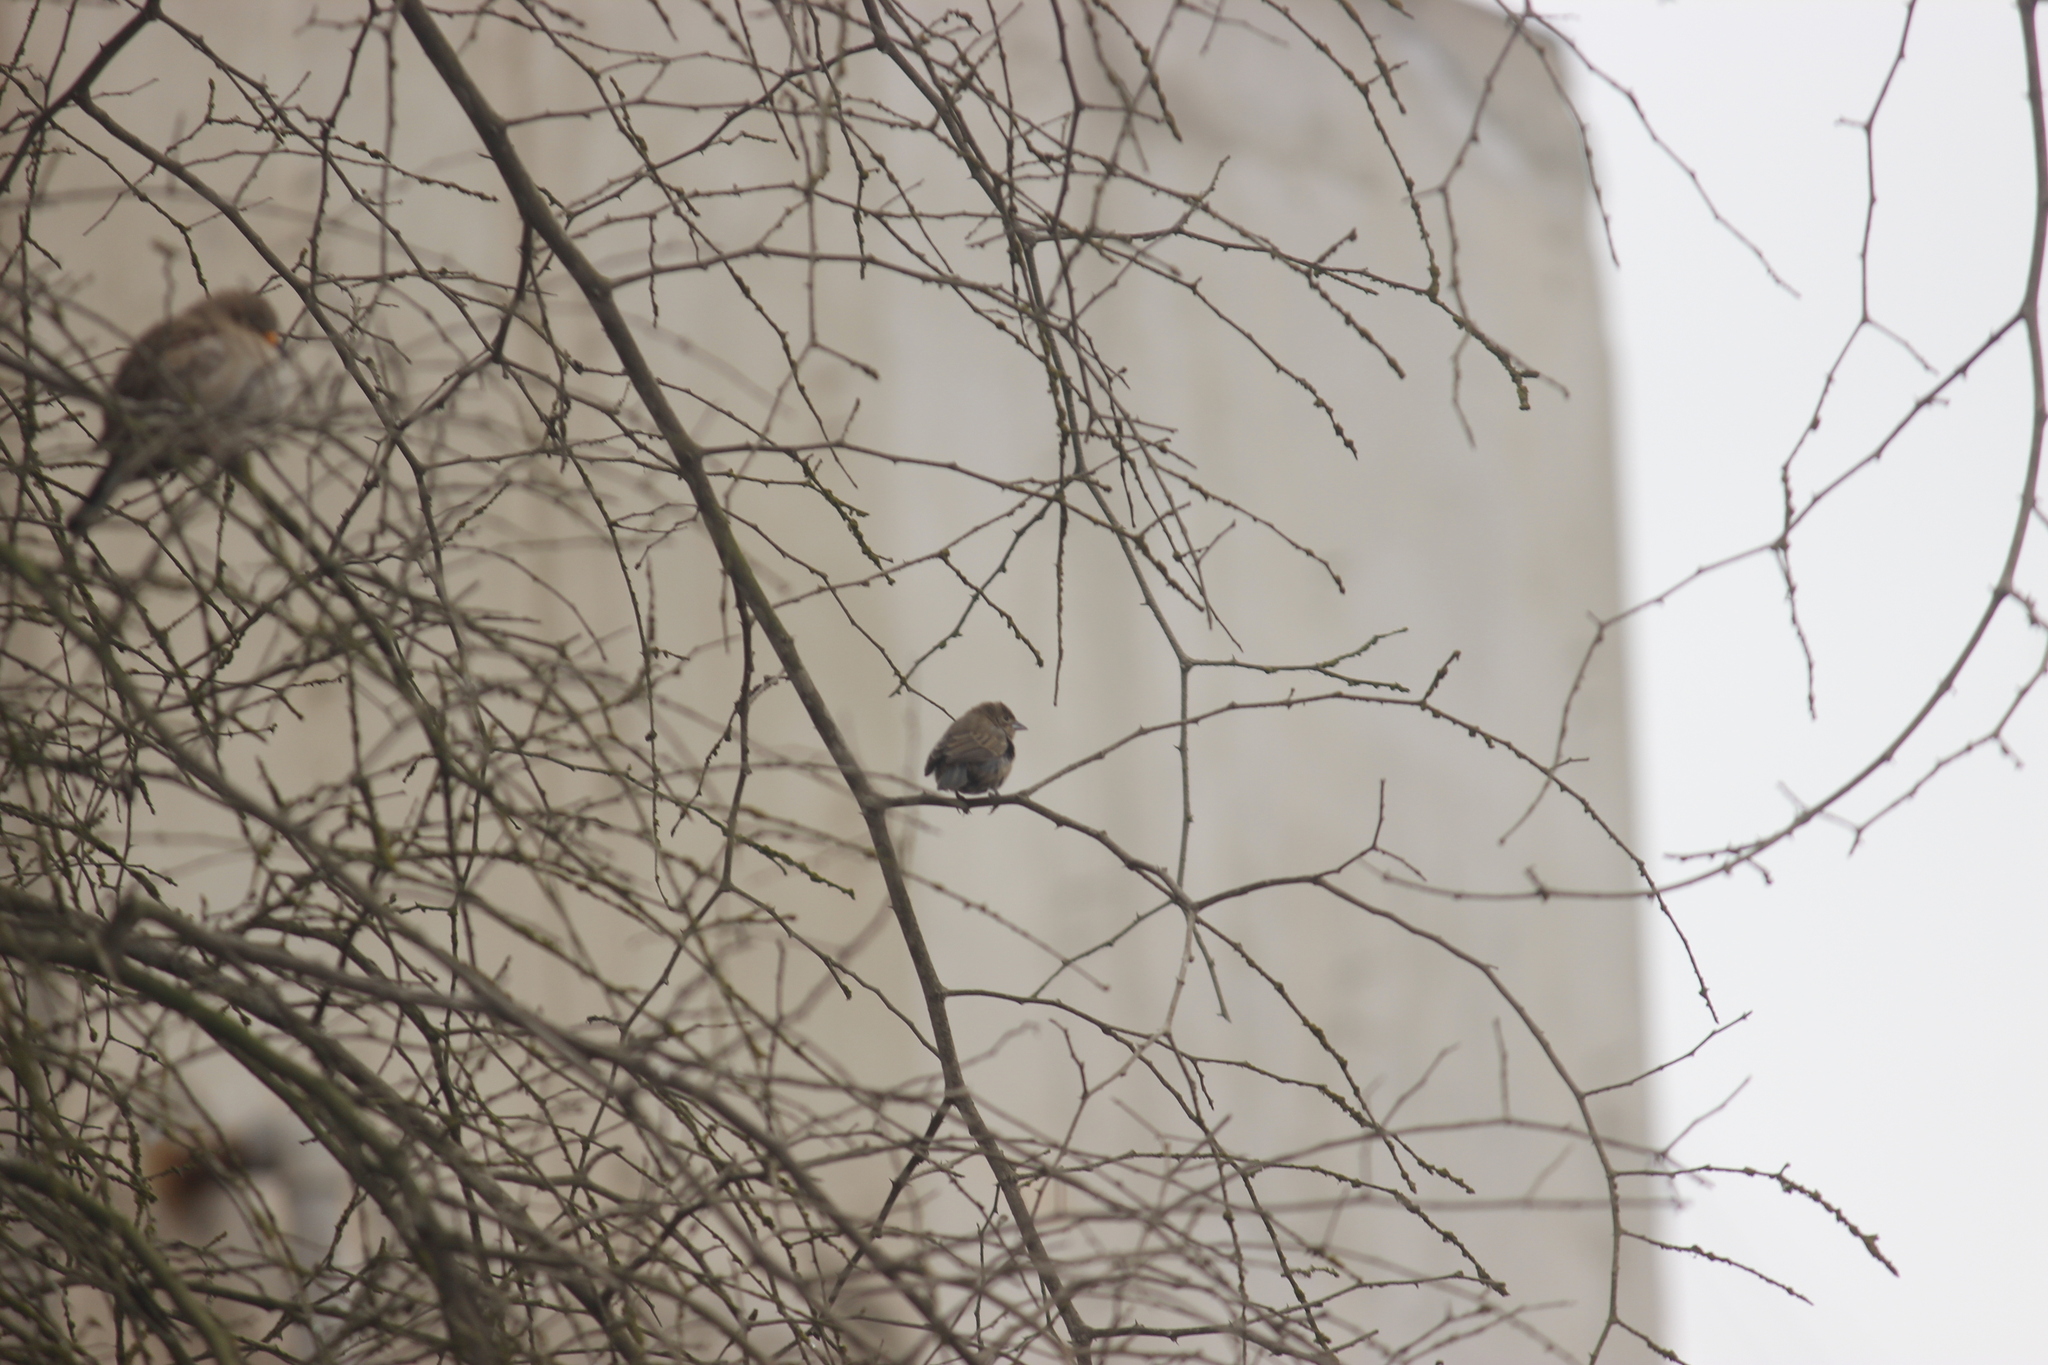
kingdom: Animalia
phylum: Chordata
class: Aves
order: Passeriformes
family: Thraupidae
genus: Volatinia
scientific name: Volatinia jacarina
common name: Blue-black grassquit
